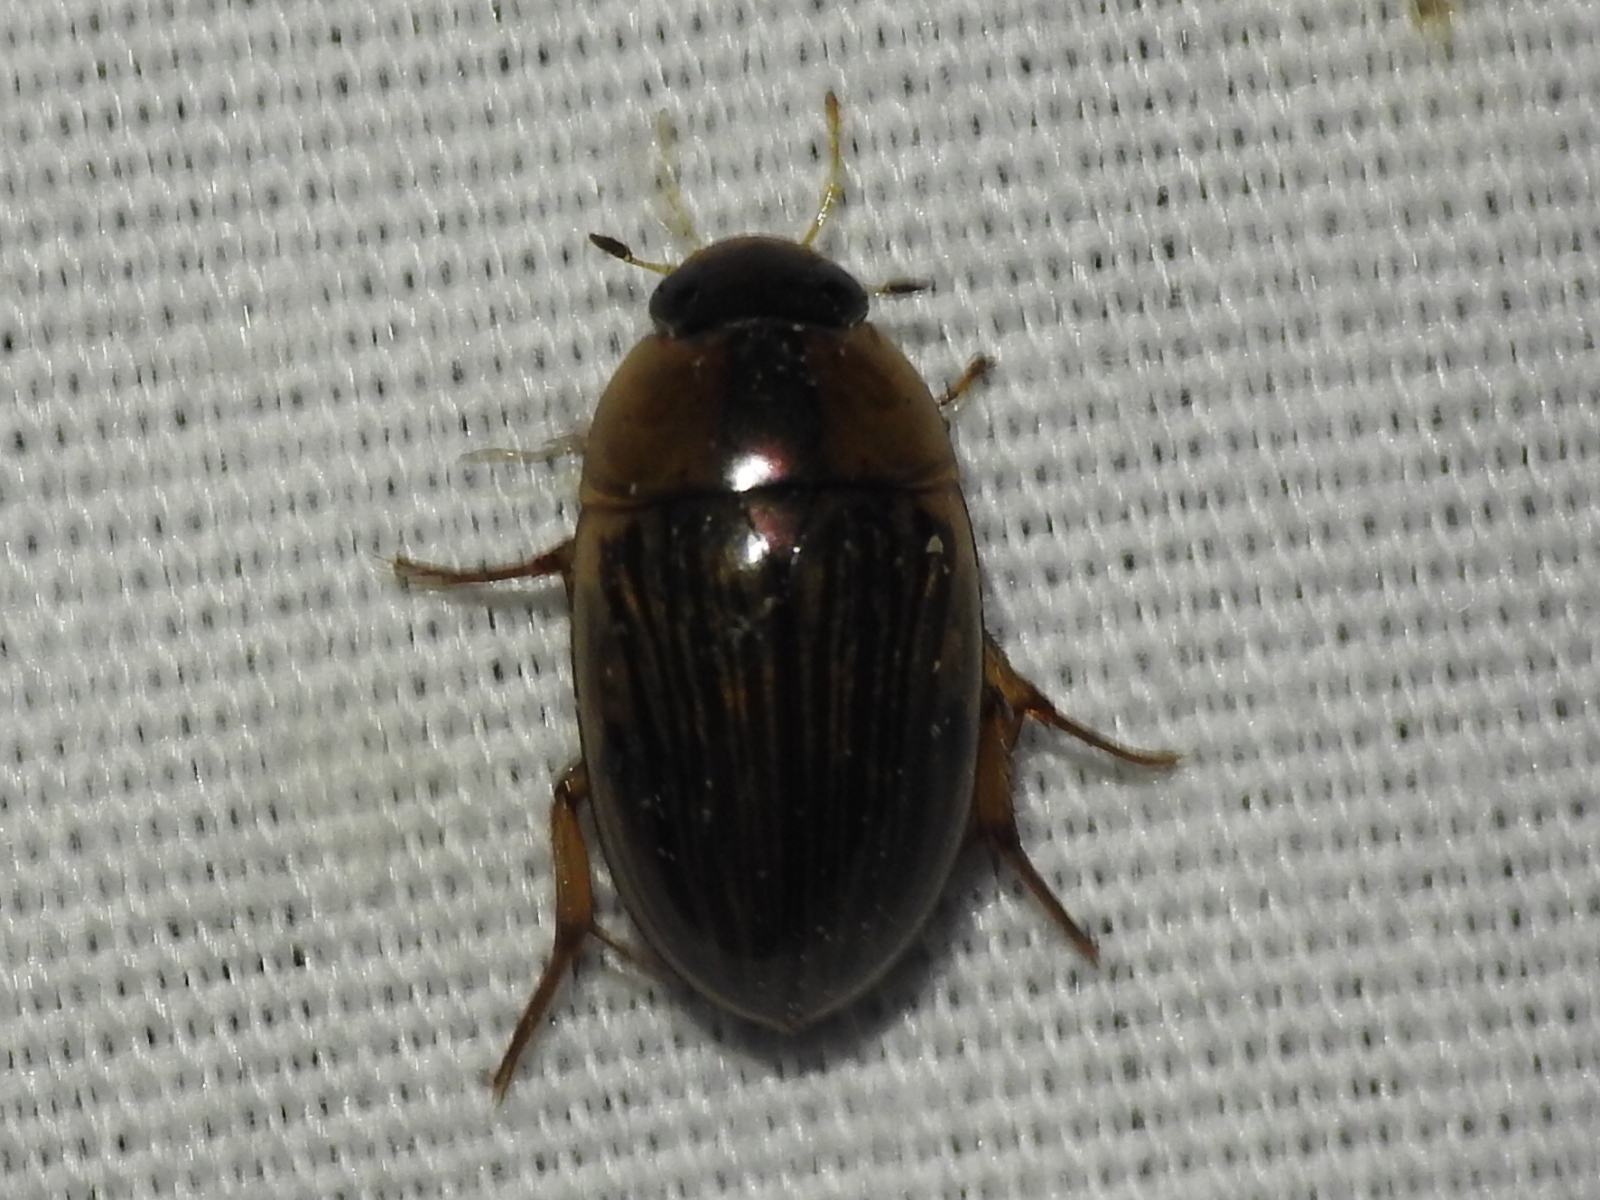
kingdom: Animalia
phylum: Arthropoda
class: Insecta
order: Coleoptera
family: Hydrophilidae
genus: Tropisternus
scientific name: Tropisternus collaris
